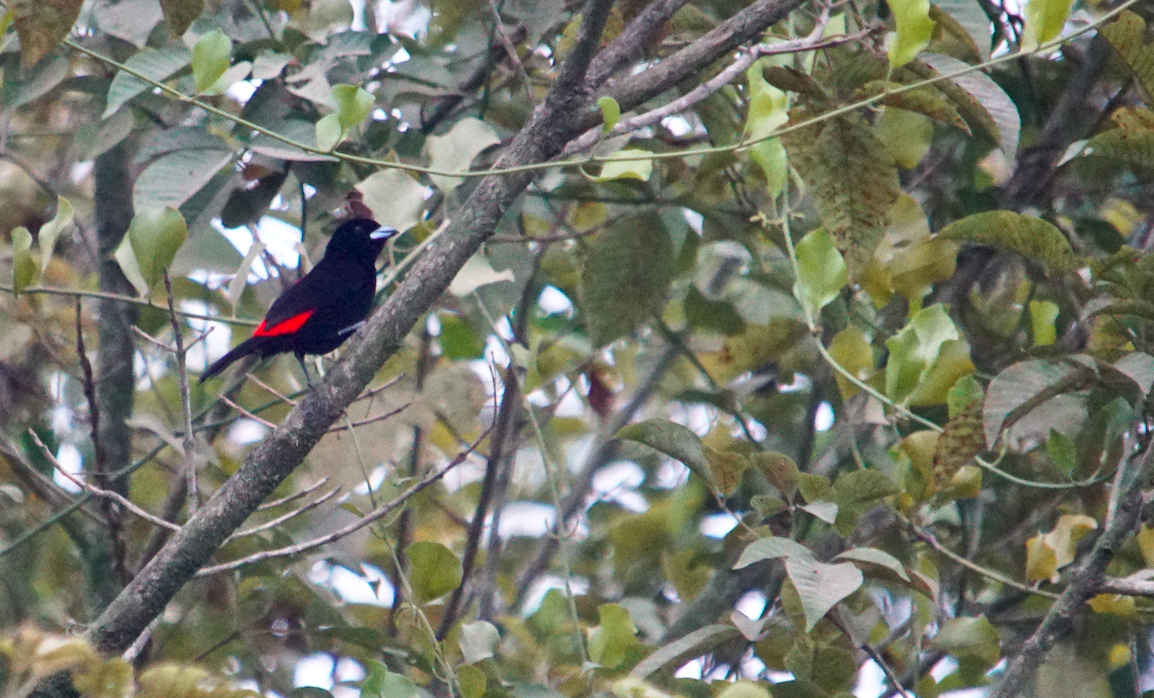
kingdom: Animalia
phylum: Chordata
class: Aves
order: Passeriformes
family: Thraupidae
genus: Ramphocelus
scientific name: Ramphocelus passerinii
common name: Passerini's tanager
